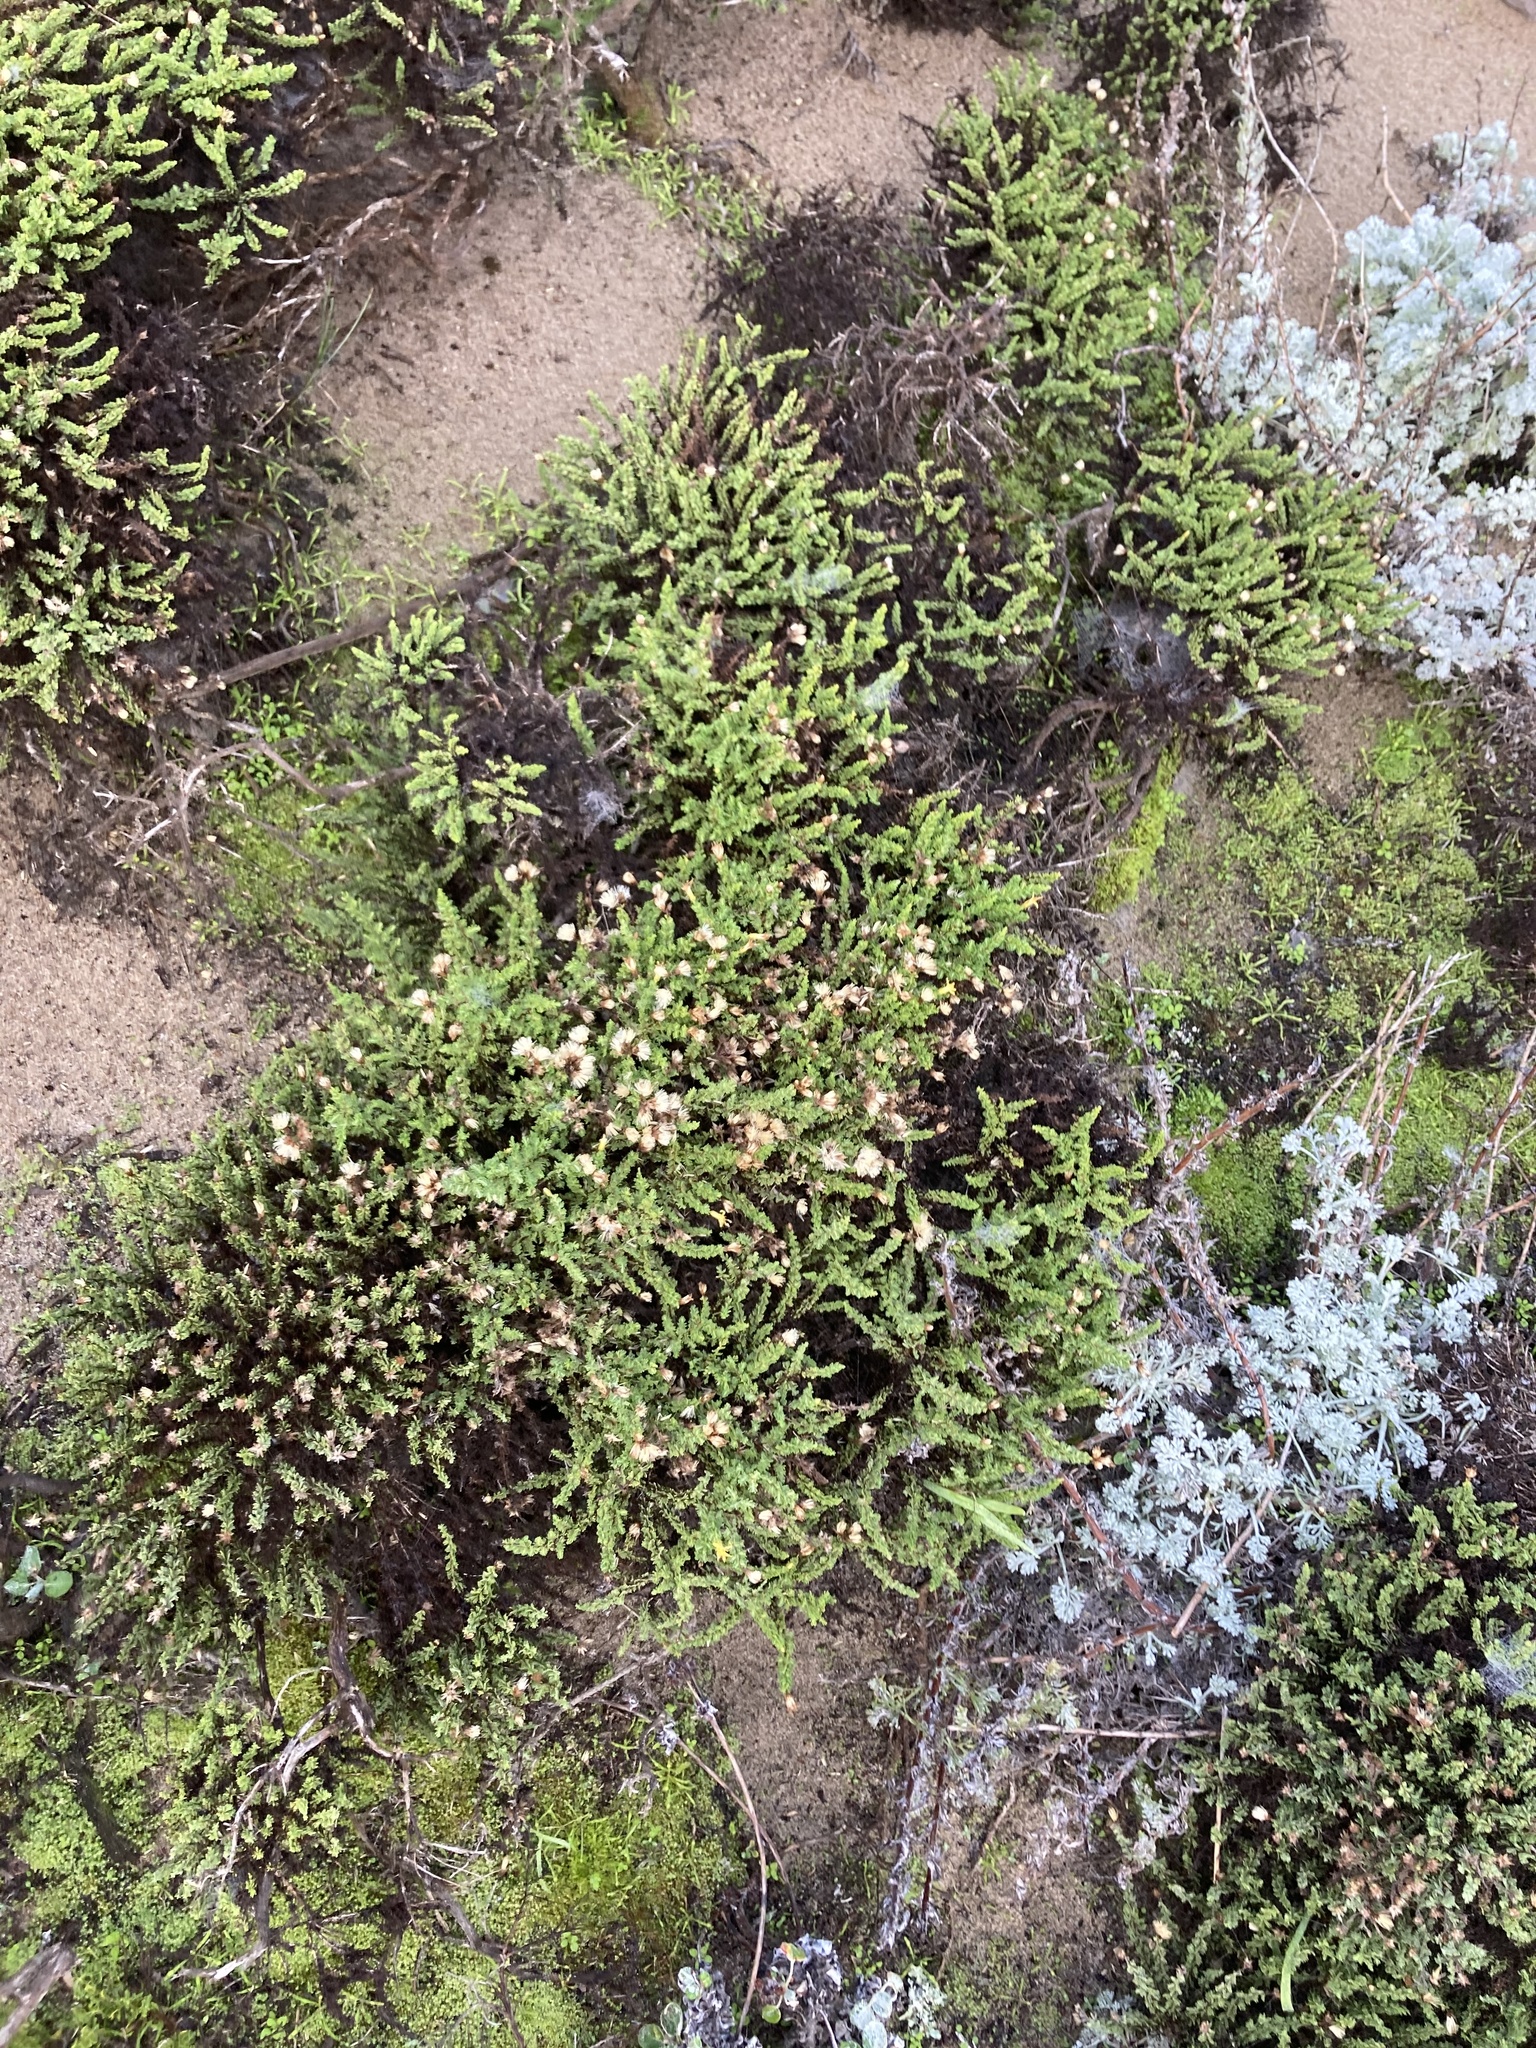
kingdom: Plantae
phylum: Tracheophyta
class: Magnoliopsida
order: Asterales
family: Asteraceae
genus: Ericameria
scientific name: Ericameria ericoides
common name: California goldenbush
